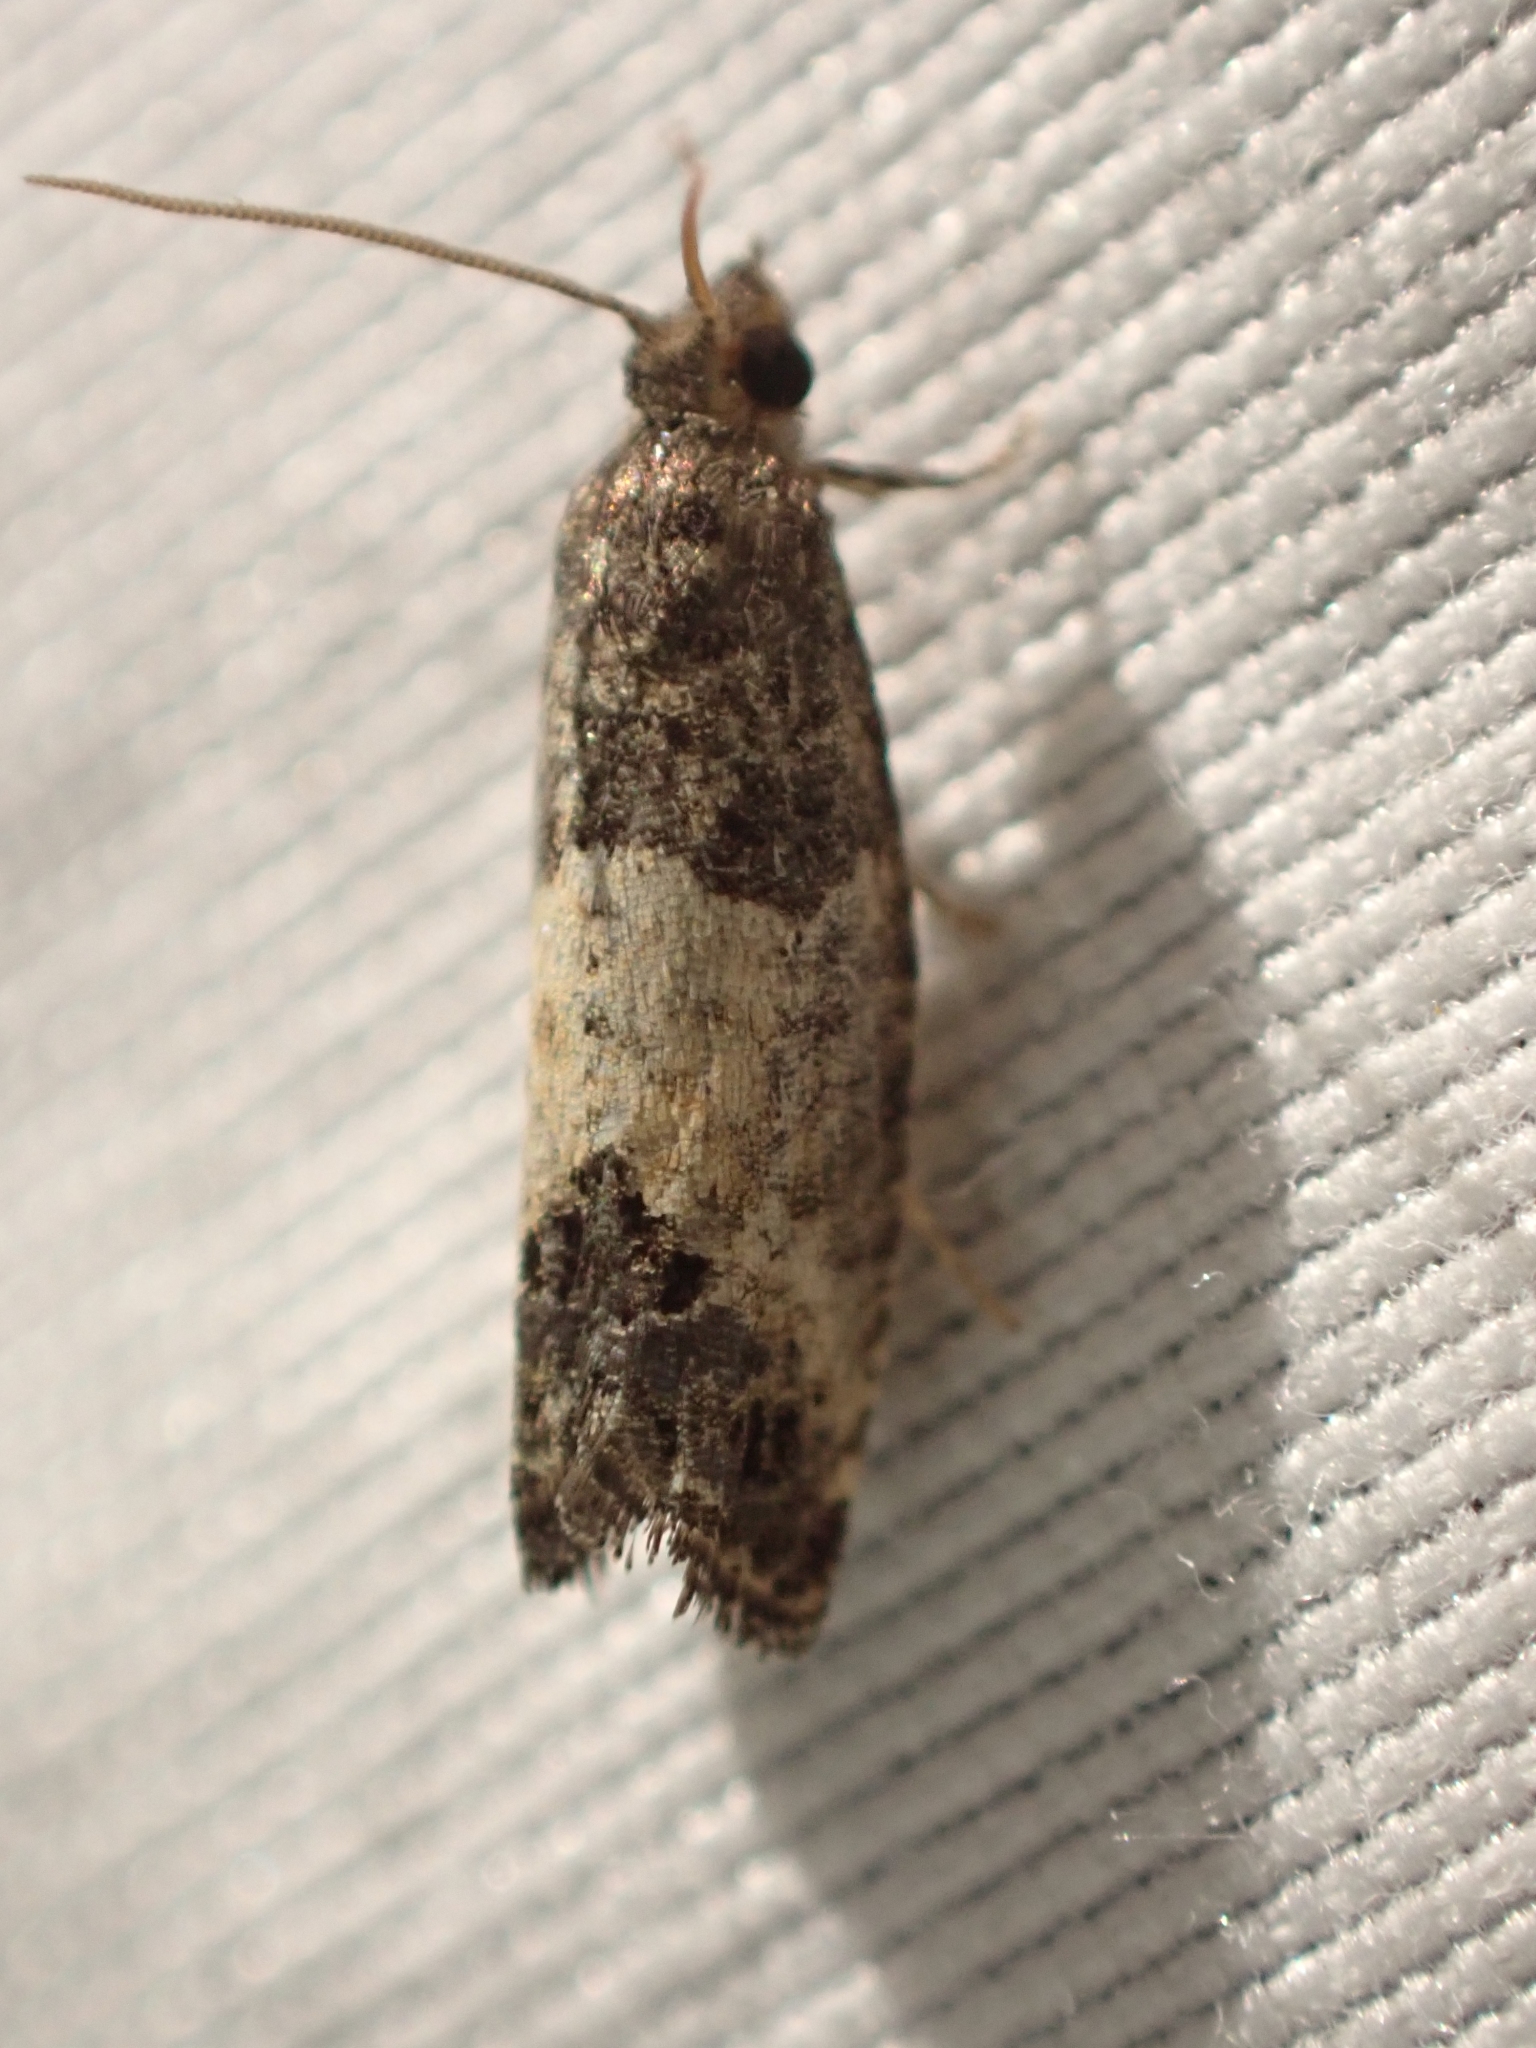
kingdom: Animalia
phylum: Arthropoda
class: Insecta
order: Lepidoptera
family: Tortricidae
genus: Spilonota
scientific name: Spilonota ocellana
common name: Bud moth
